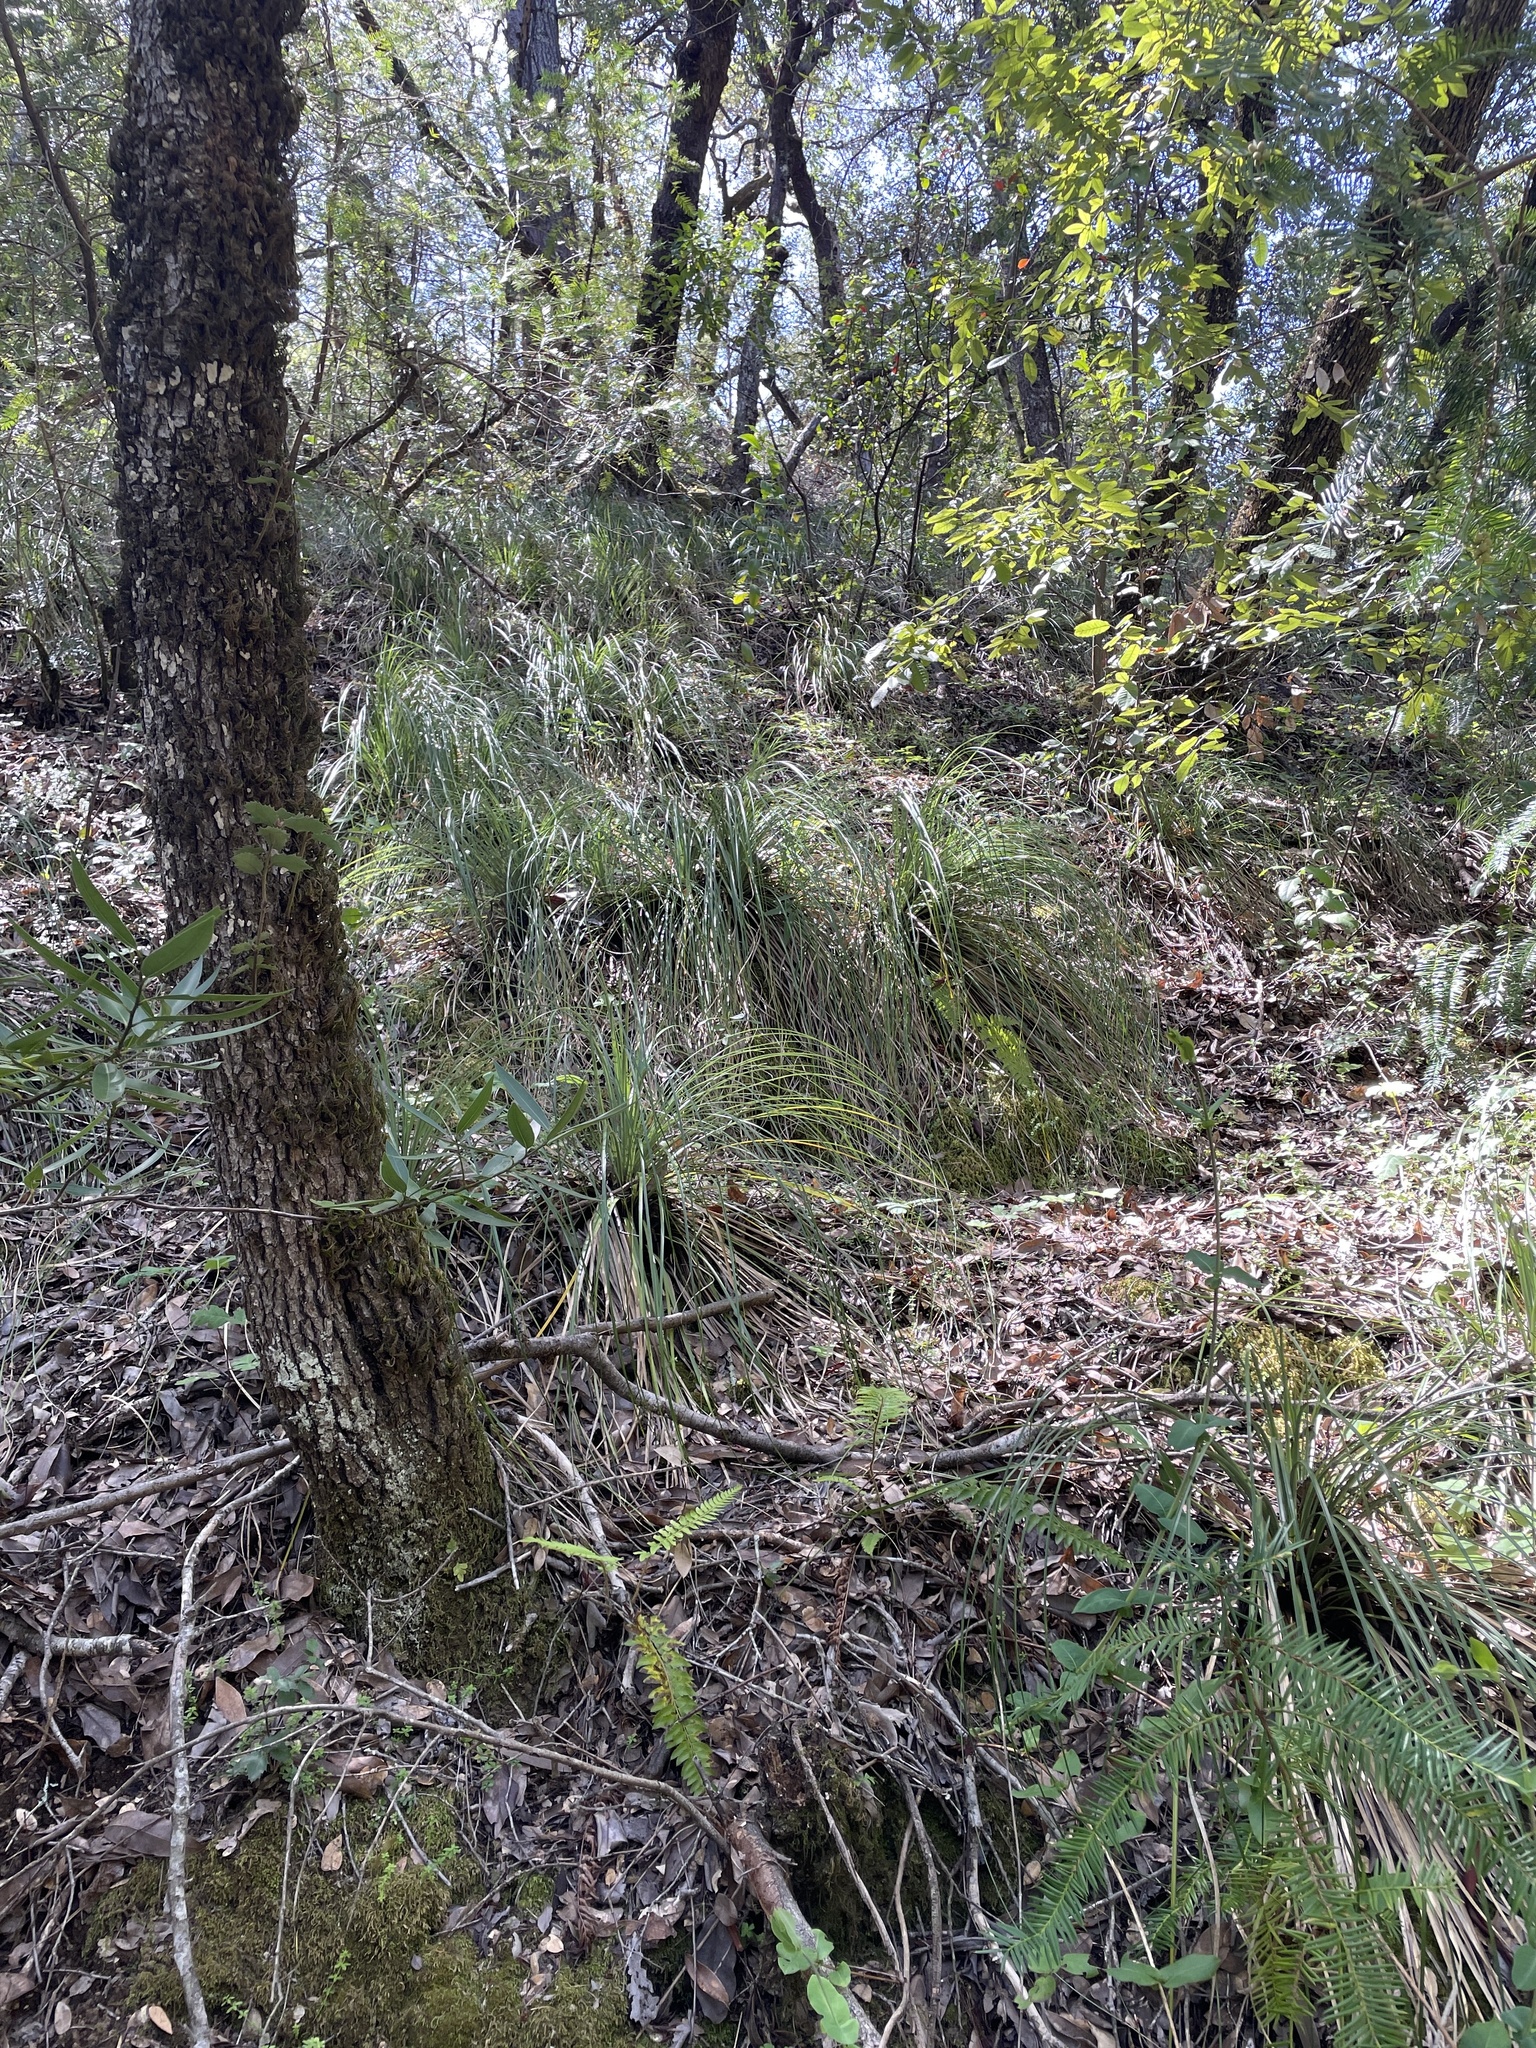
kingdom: Plantae
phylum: Tracheophyta
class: Liliopsida
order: Liliales
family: Melanthiaceae
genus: Xerophyllum
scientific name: Xerophyllum tenax
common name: Bear-grass
